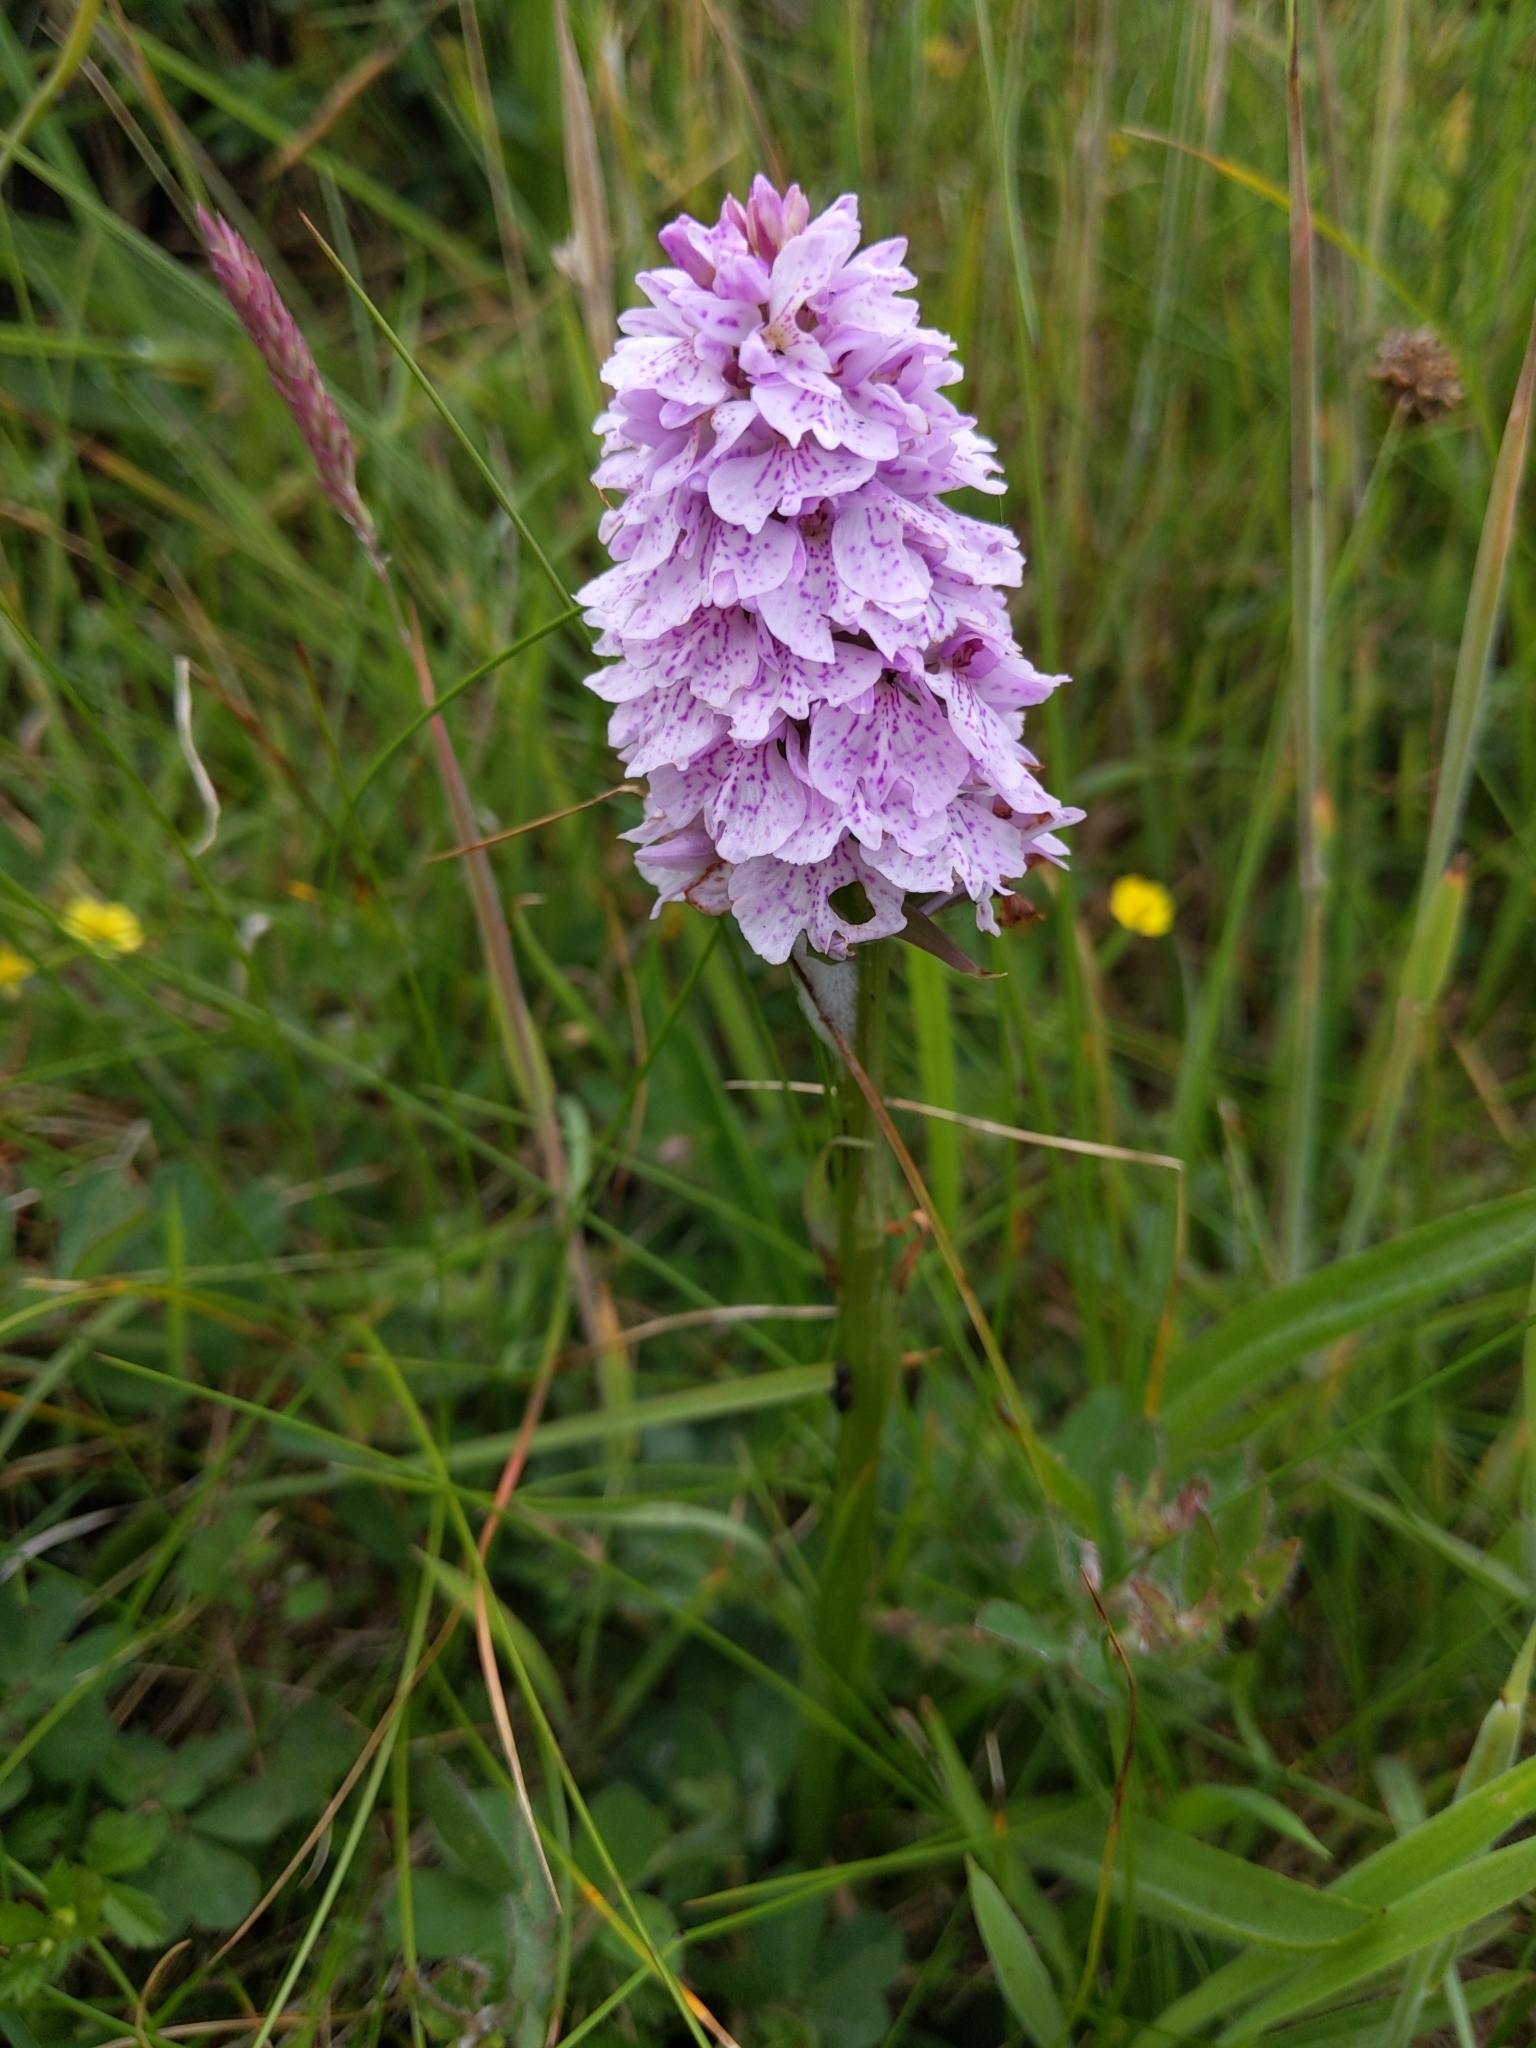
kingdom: Plantae
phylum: Tracheophyta
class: Liliopsida
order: Asparagales
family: Orchidaceae
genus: Dactylorhiza
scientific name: Dactylorhiza maculata
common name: Heath spotted-orchid
